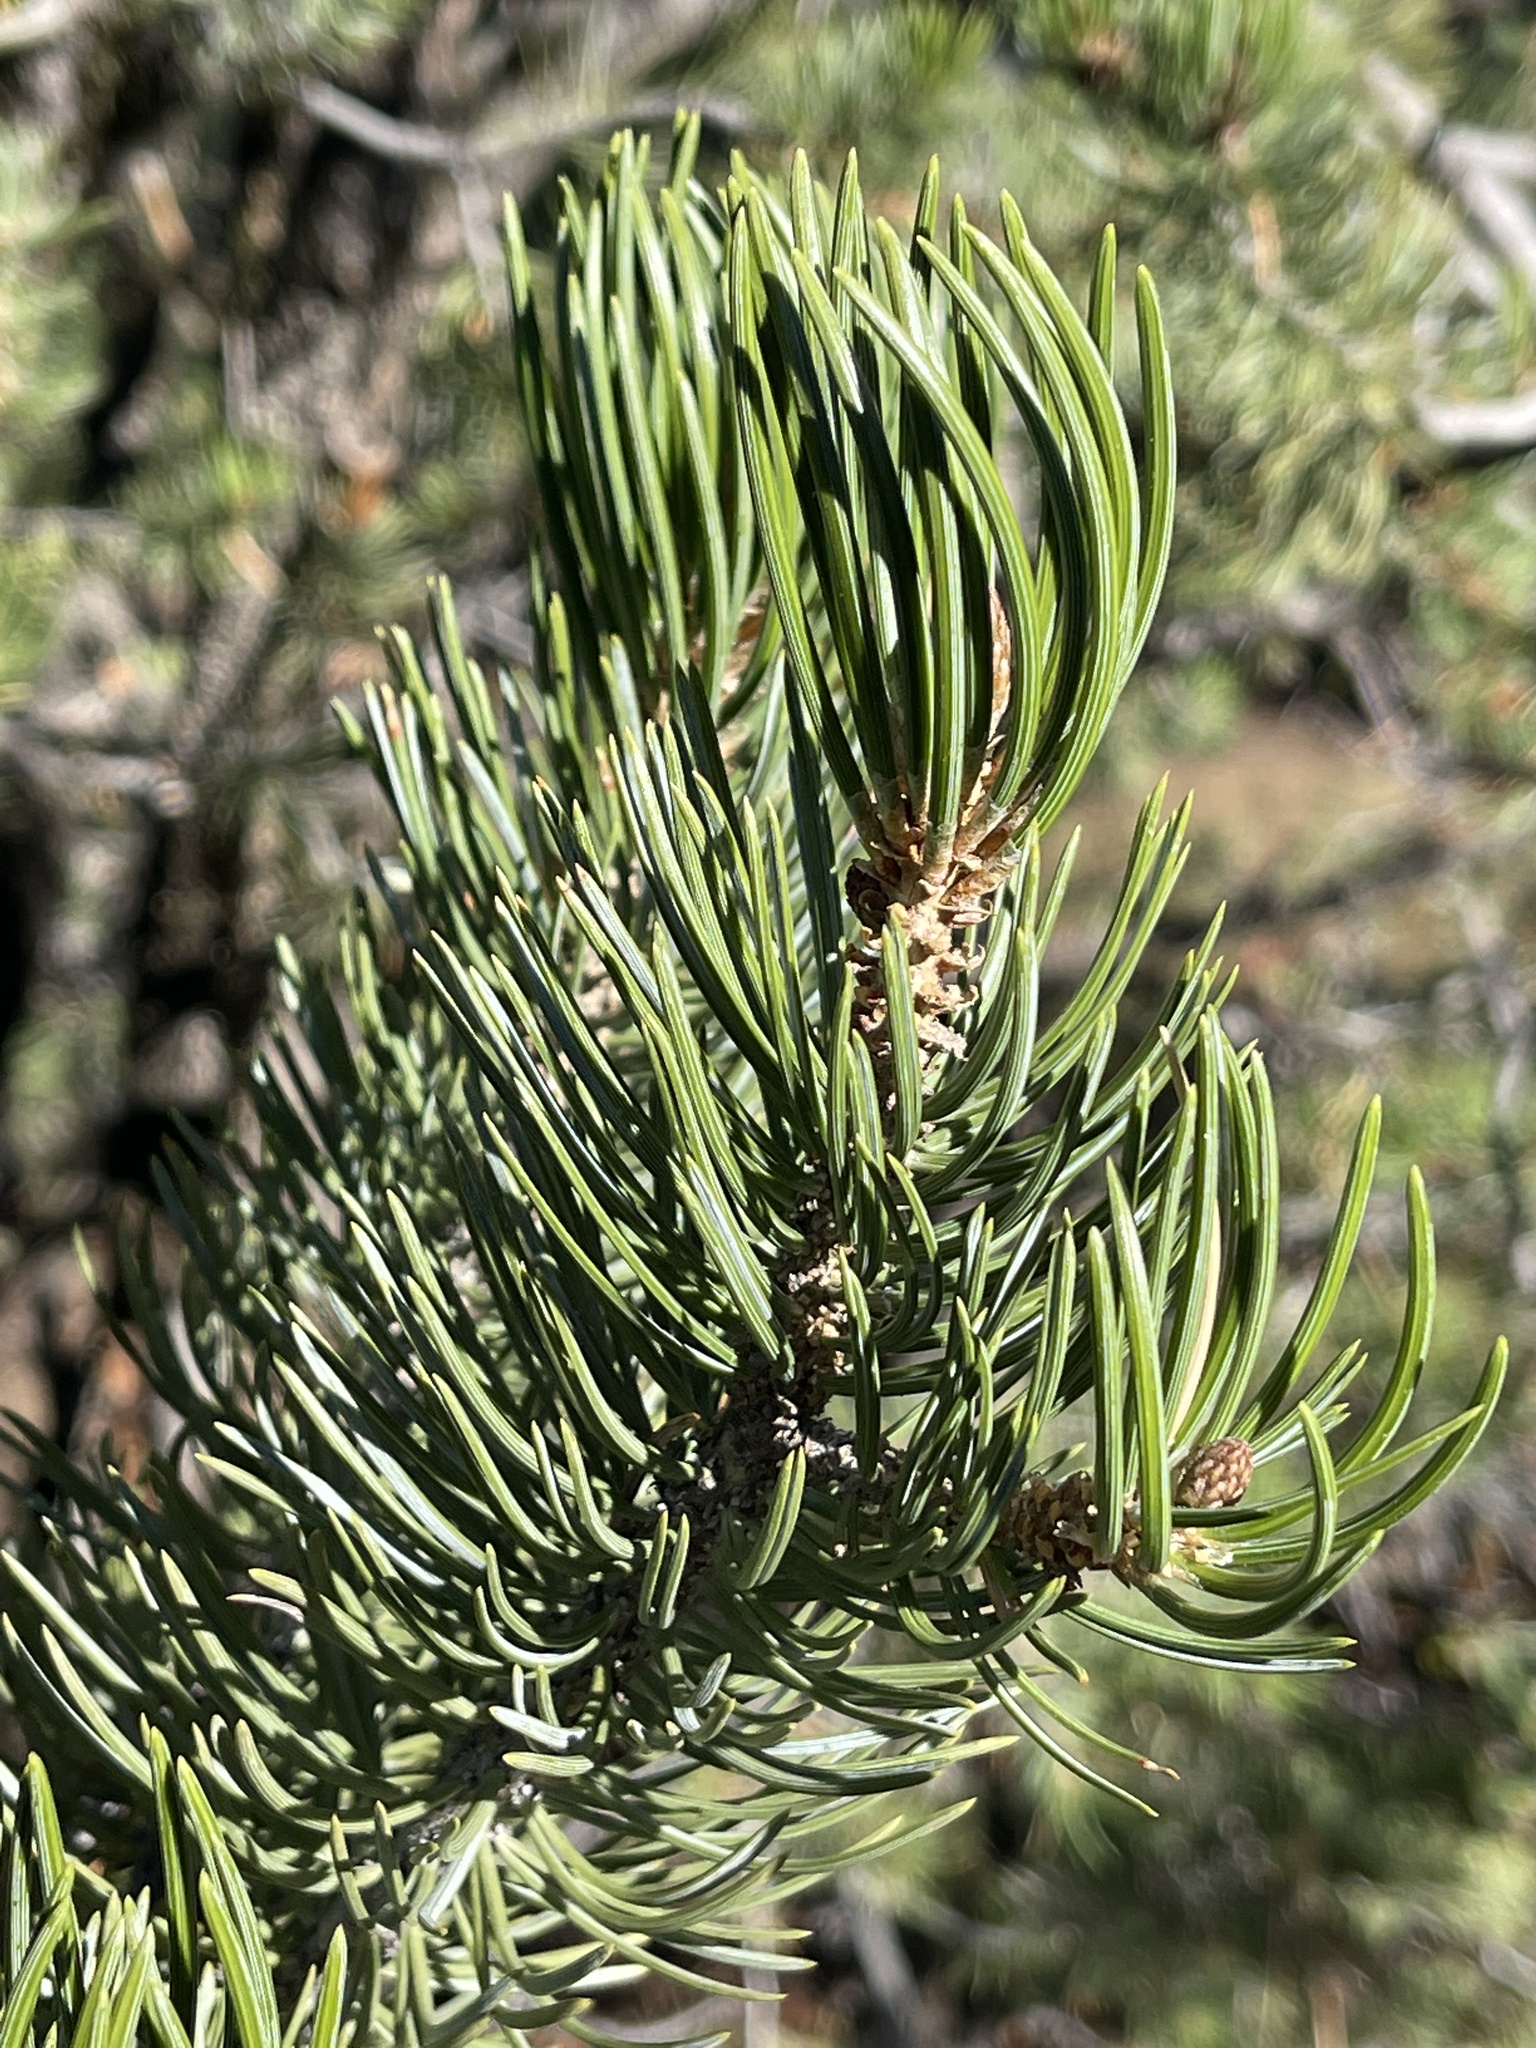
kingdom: Plantae
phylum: Tracheophyta
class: Pinopsida
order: Pinales
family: Pinaceae
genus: Pinus
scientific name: Pinus edulis
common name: Colorado pinyon
